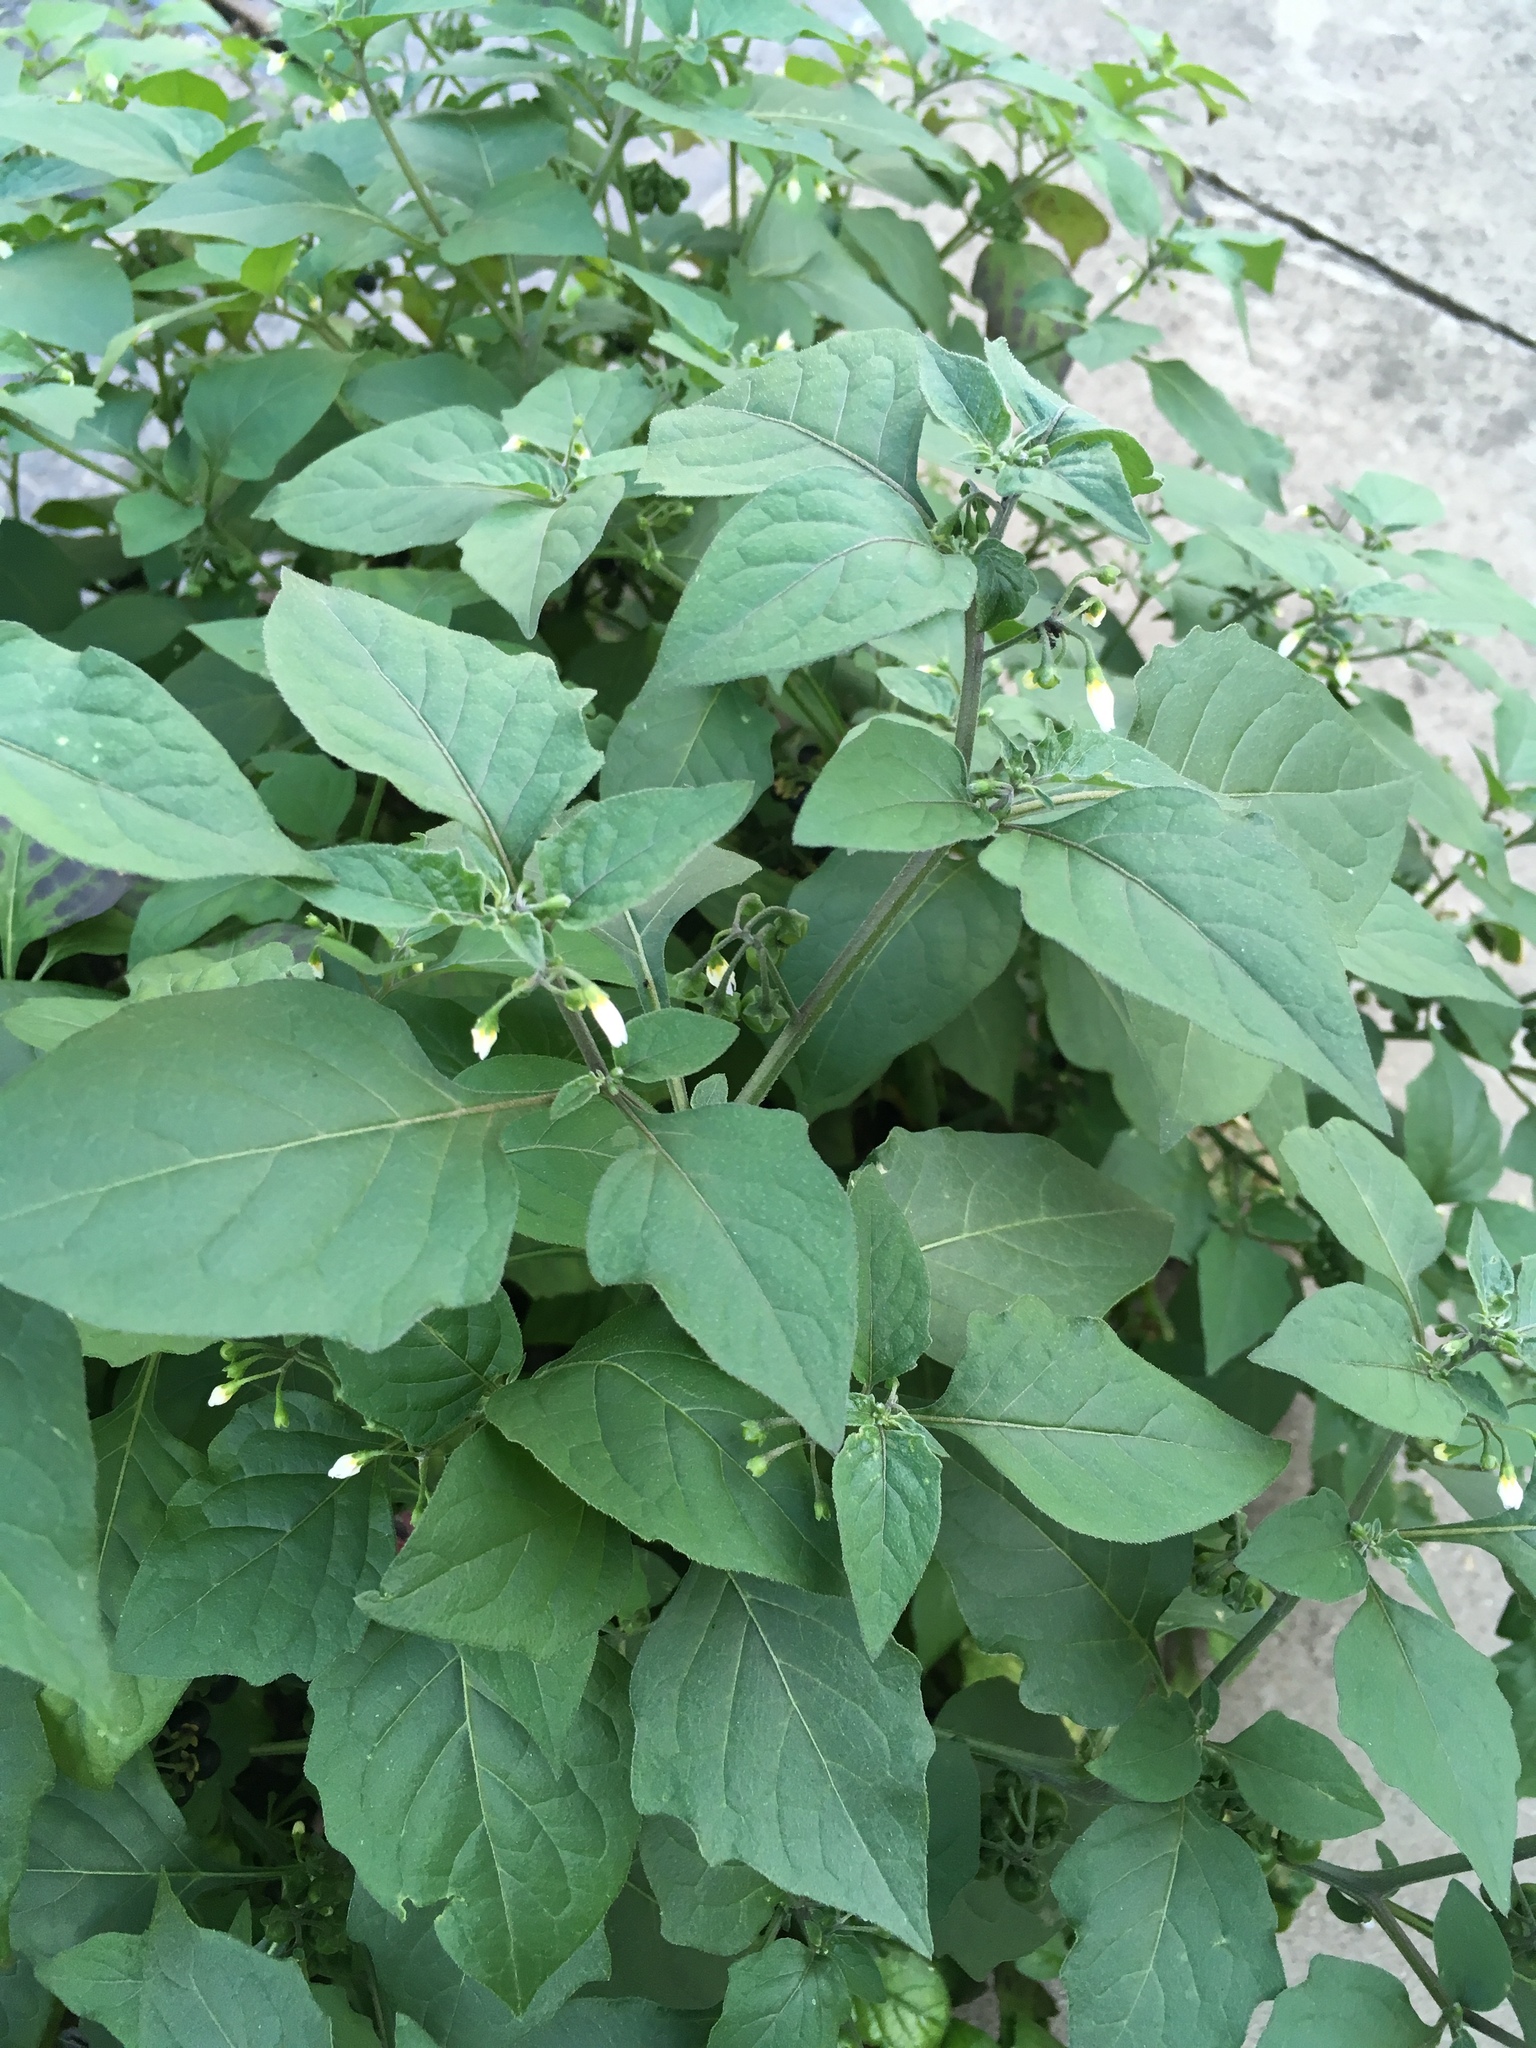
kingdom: Plantae
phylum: Tracheophyta
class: Magnoliopsida
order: Solanales
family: Solanaceae
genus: Solanum
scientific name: Solanum nigrum
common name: Black nightshade
